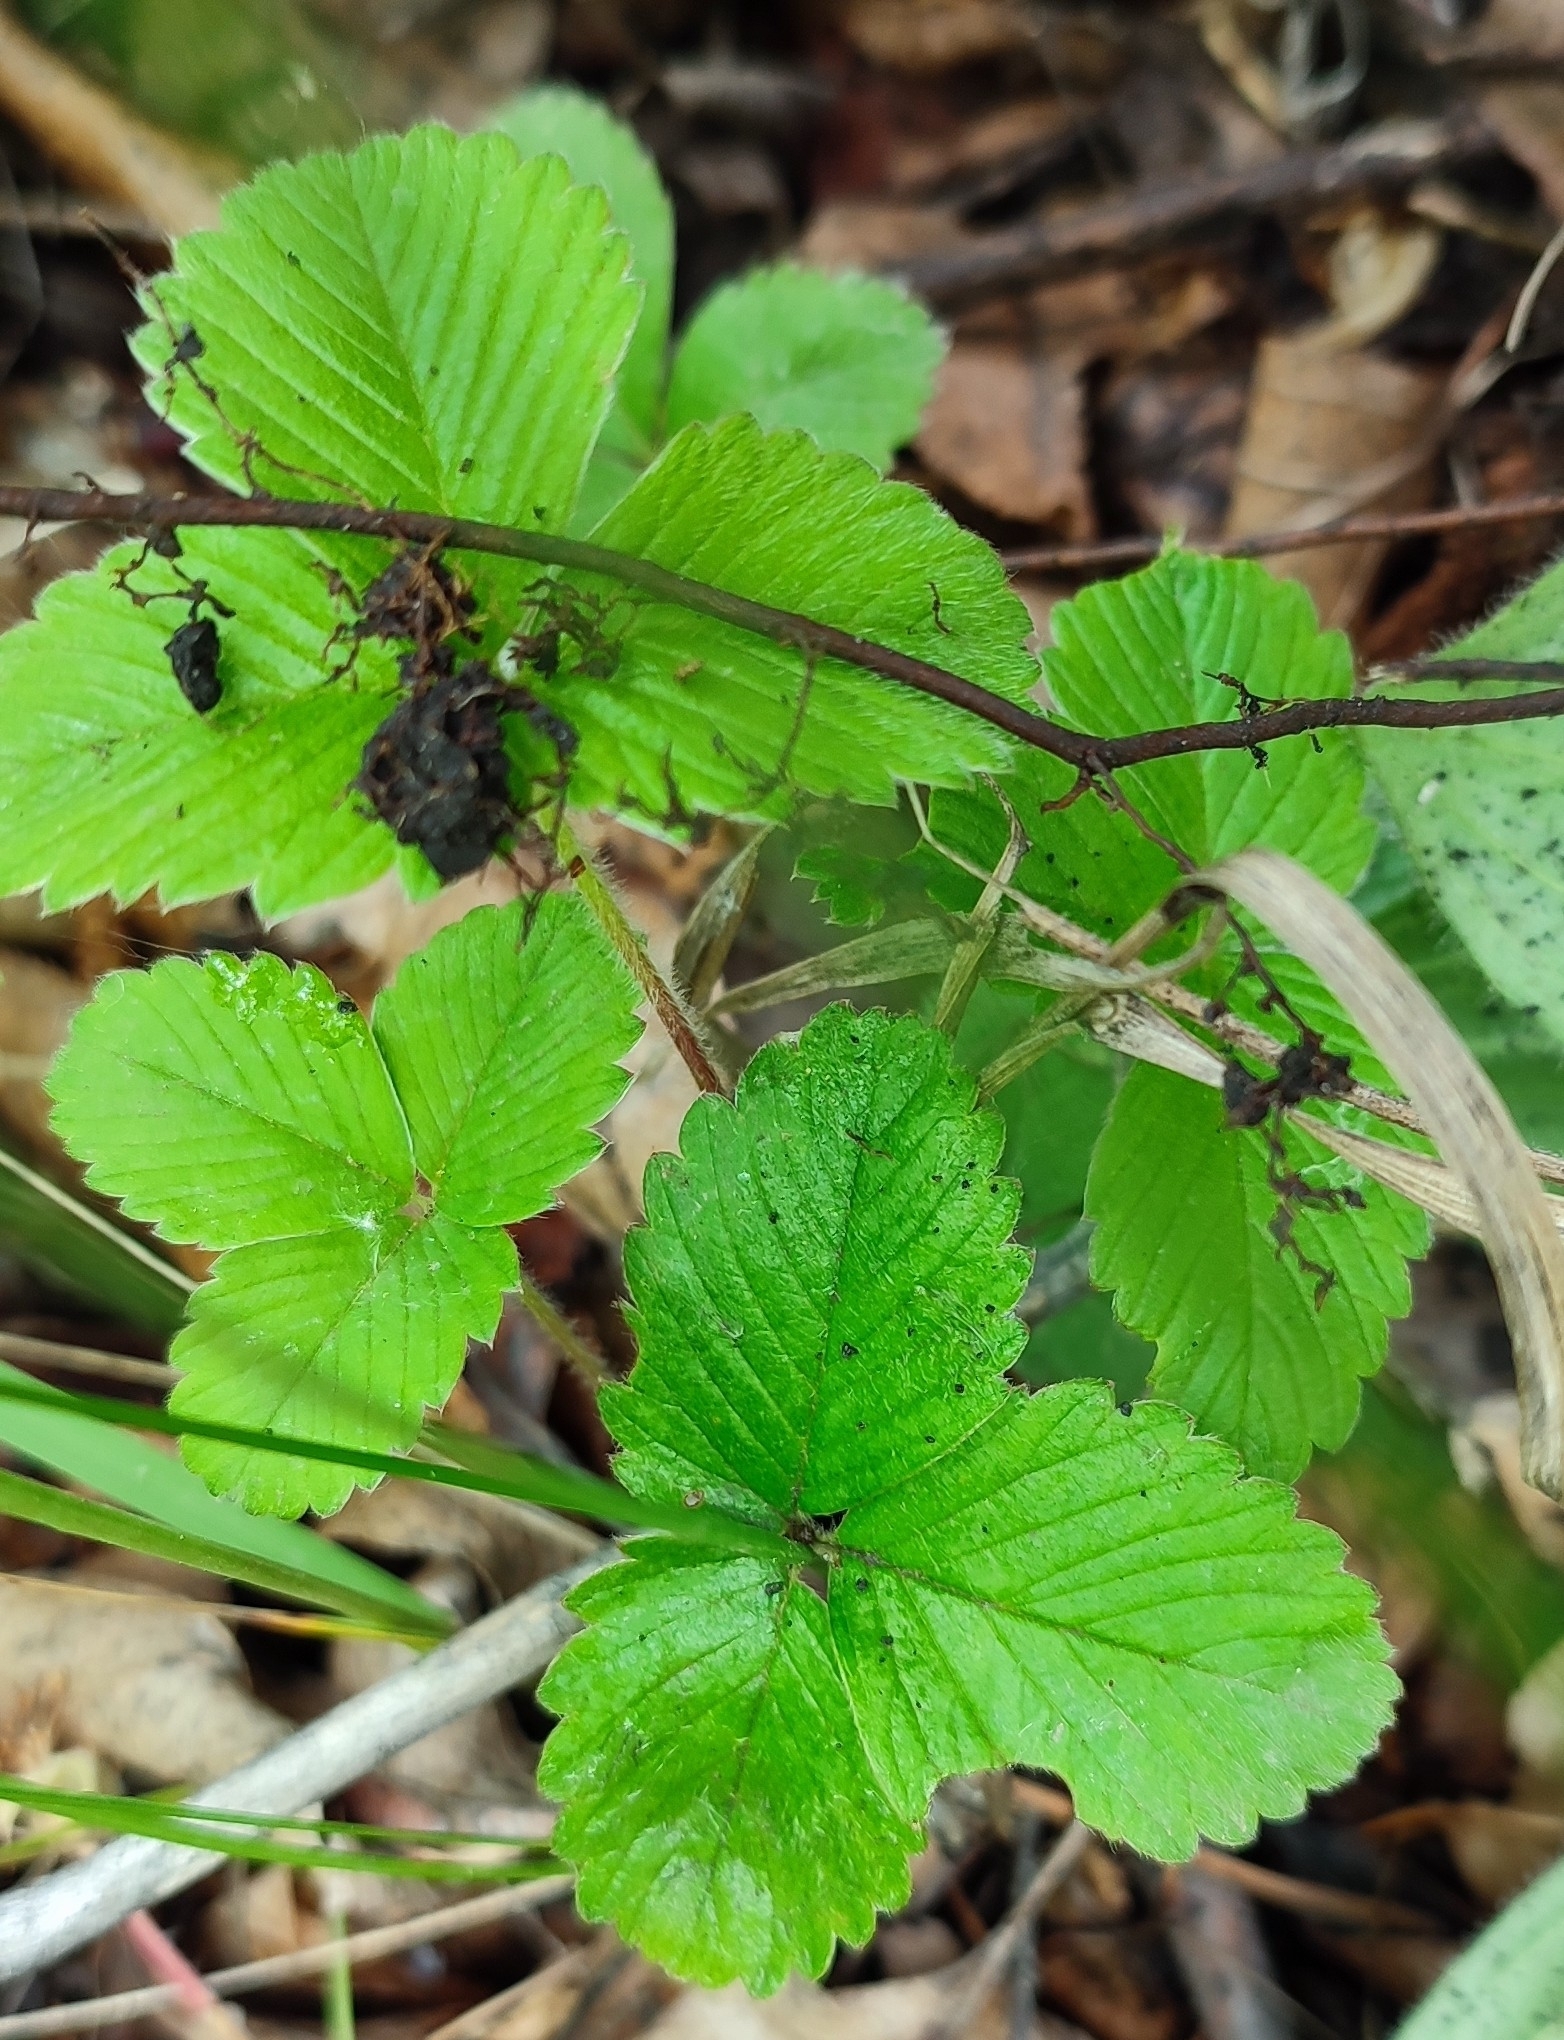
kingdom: Plantae
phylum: Tracheophyta
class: Magnoliopsida
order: Rosales
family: Rosaceae
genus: Fragaria
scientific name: Fragaria viridis
